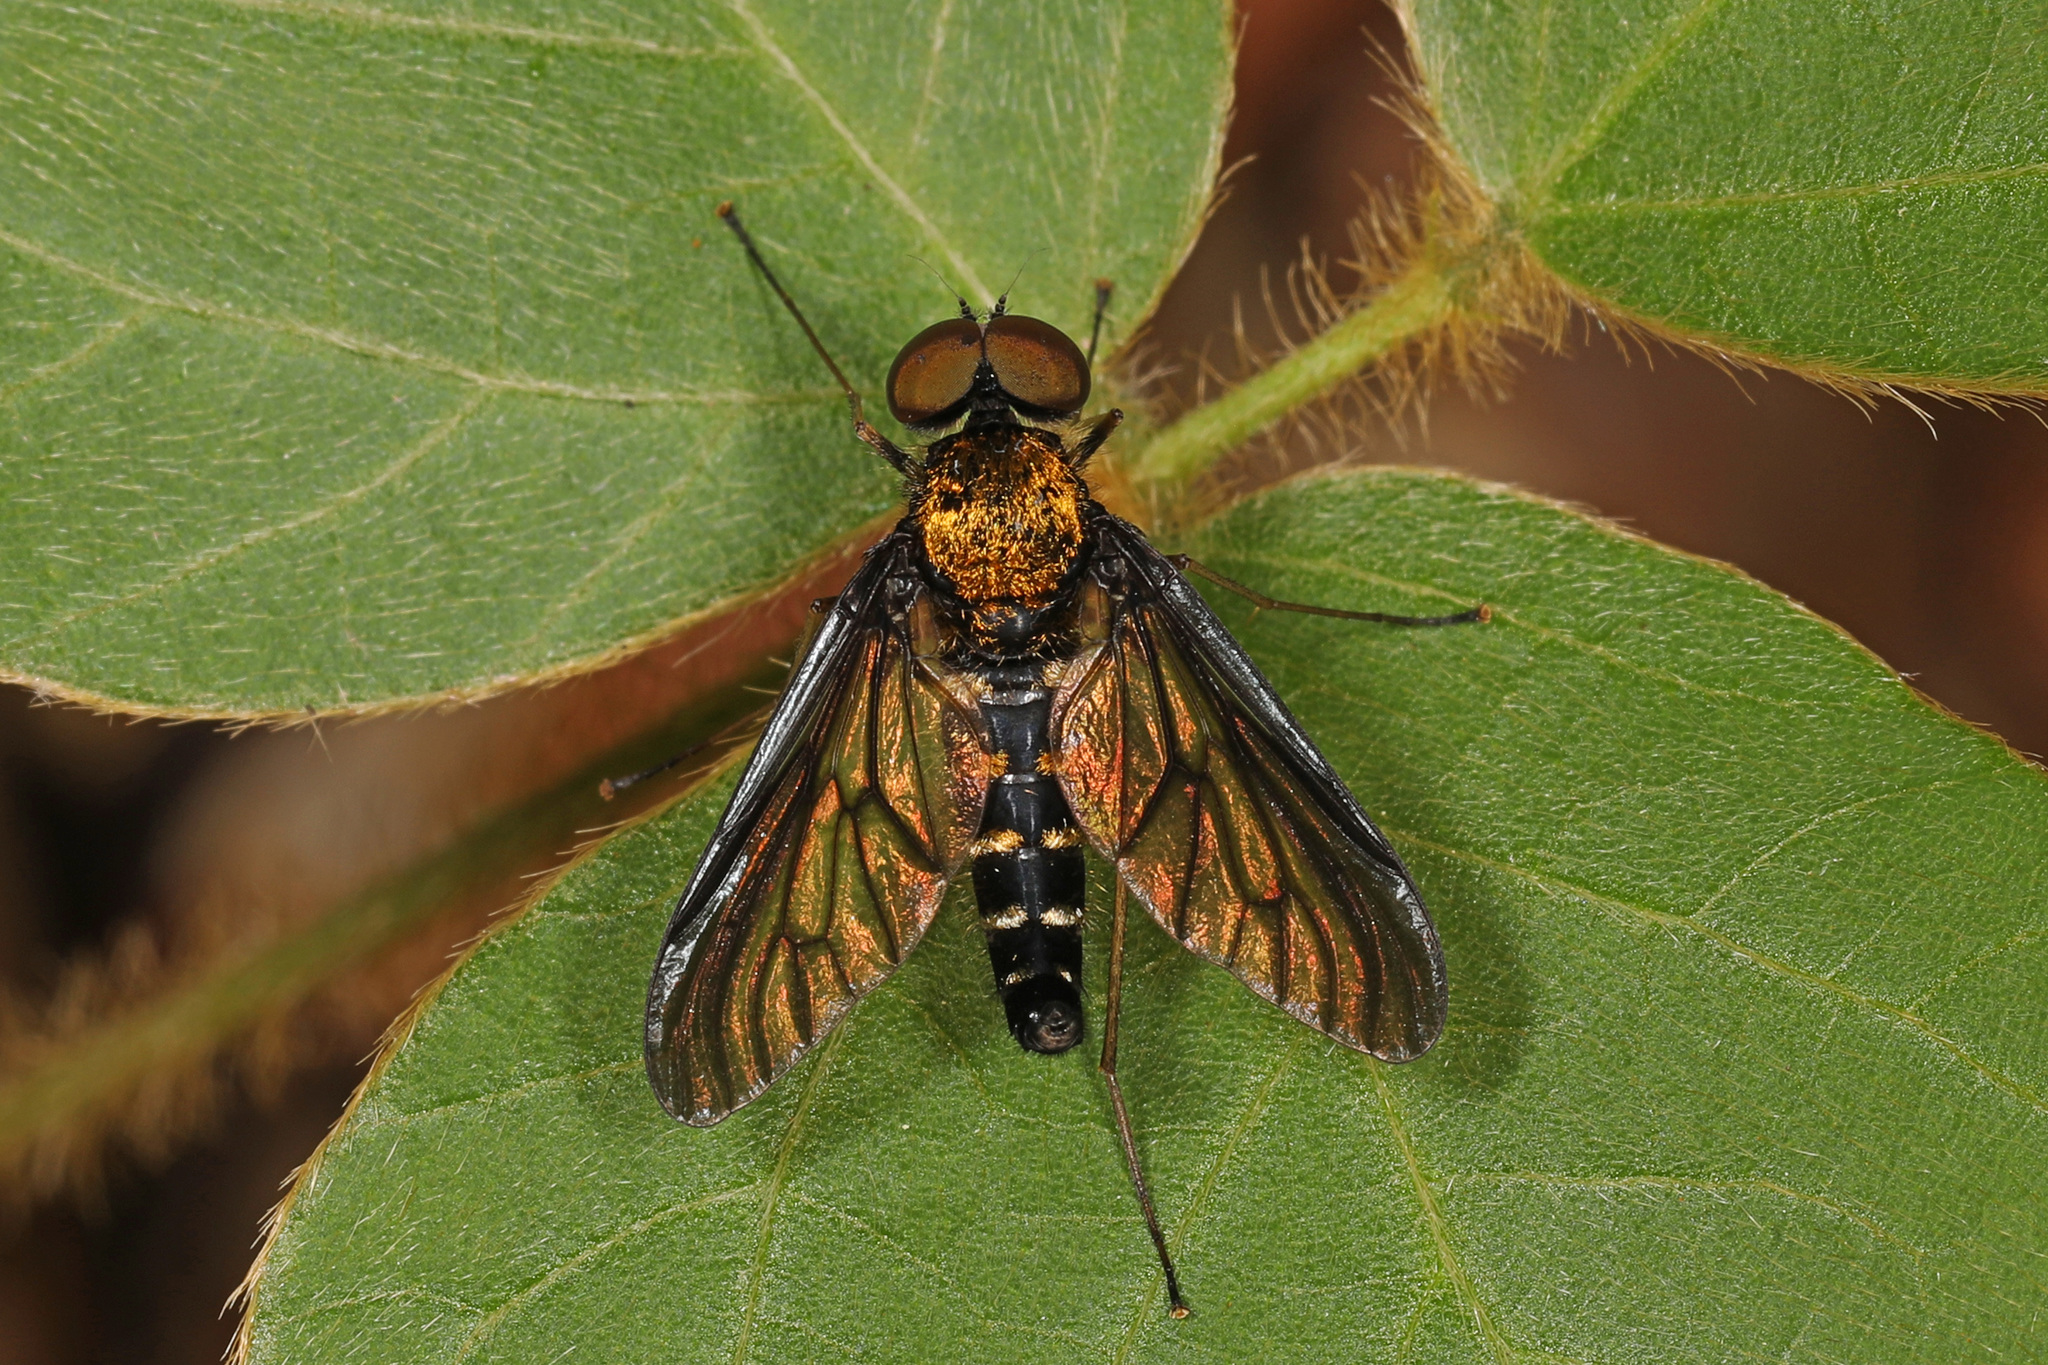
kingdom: Animalia
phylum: Arthropoda
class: Insecta
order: Diptera
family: Rhagionidae
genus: Chrysopilus
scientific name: Chrysopilus thoracicus
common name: Golden-backed snipe fly
